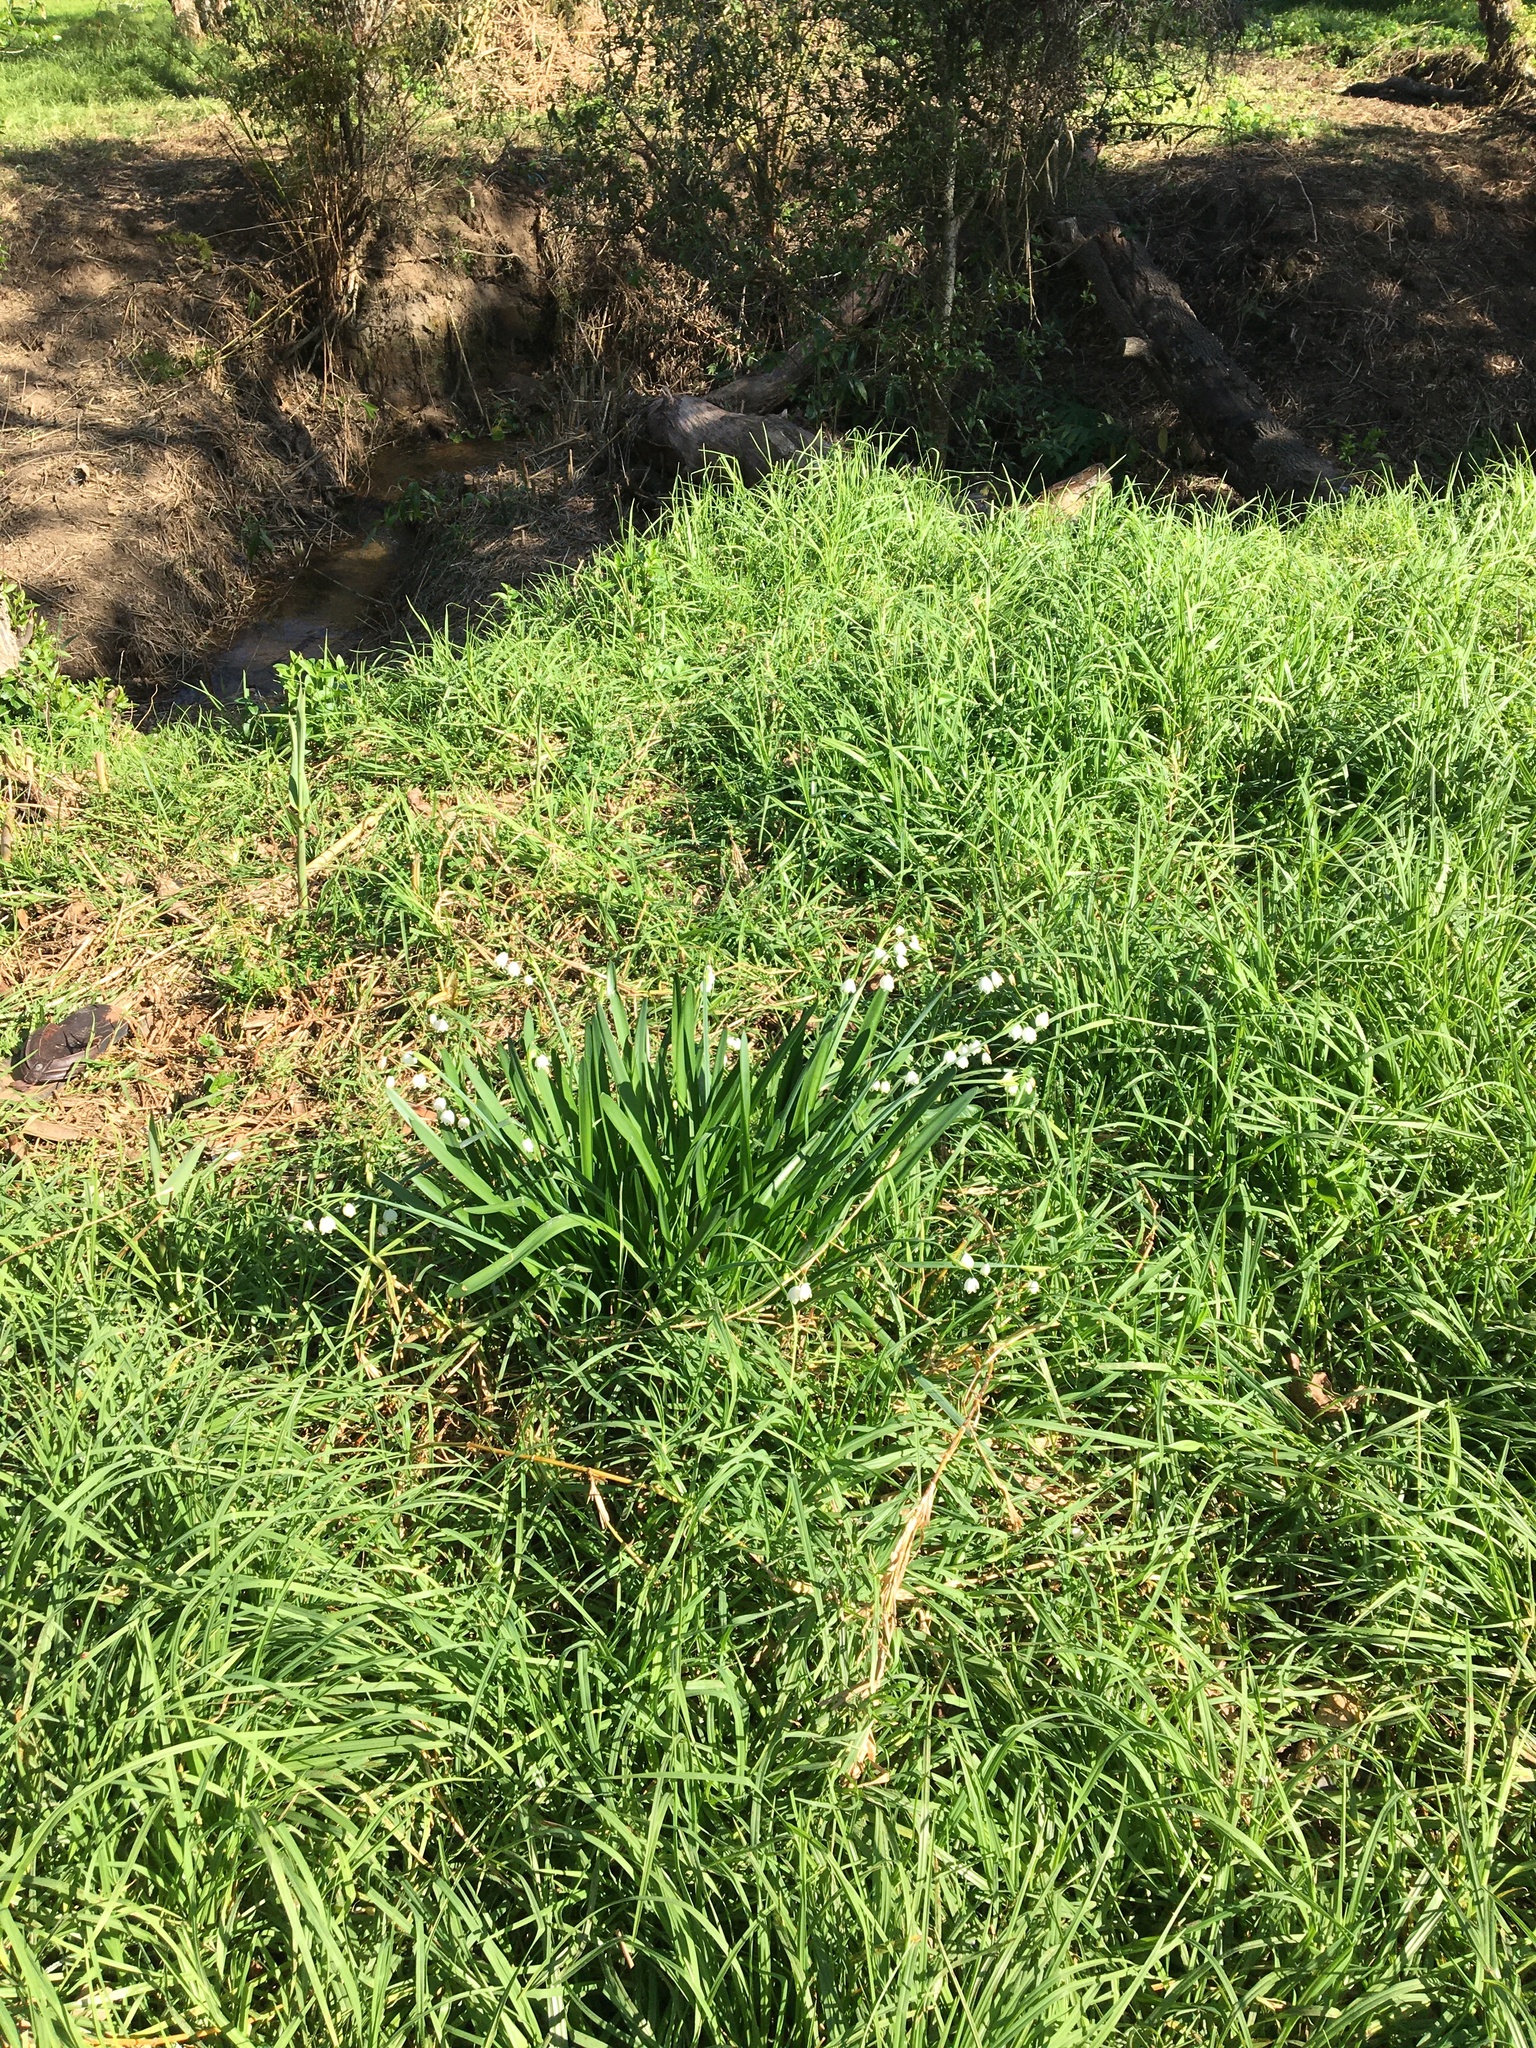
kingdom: Plantae
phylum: Tracheophyta
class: Liliopsida
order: Asparagales
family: Amaryllidaceae
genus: Leucojum
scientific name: Leucojum aestivum
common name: Summer snowflake
